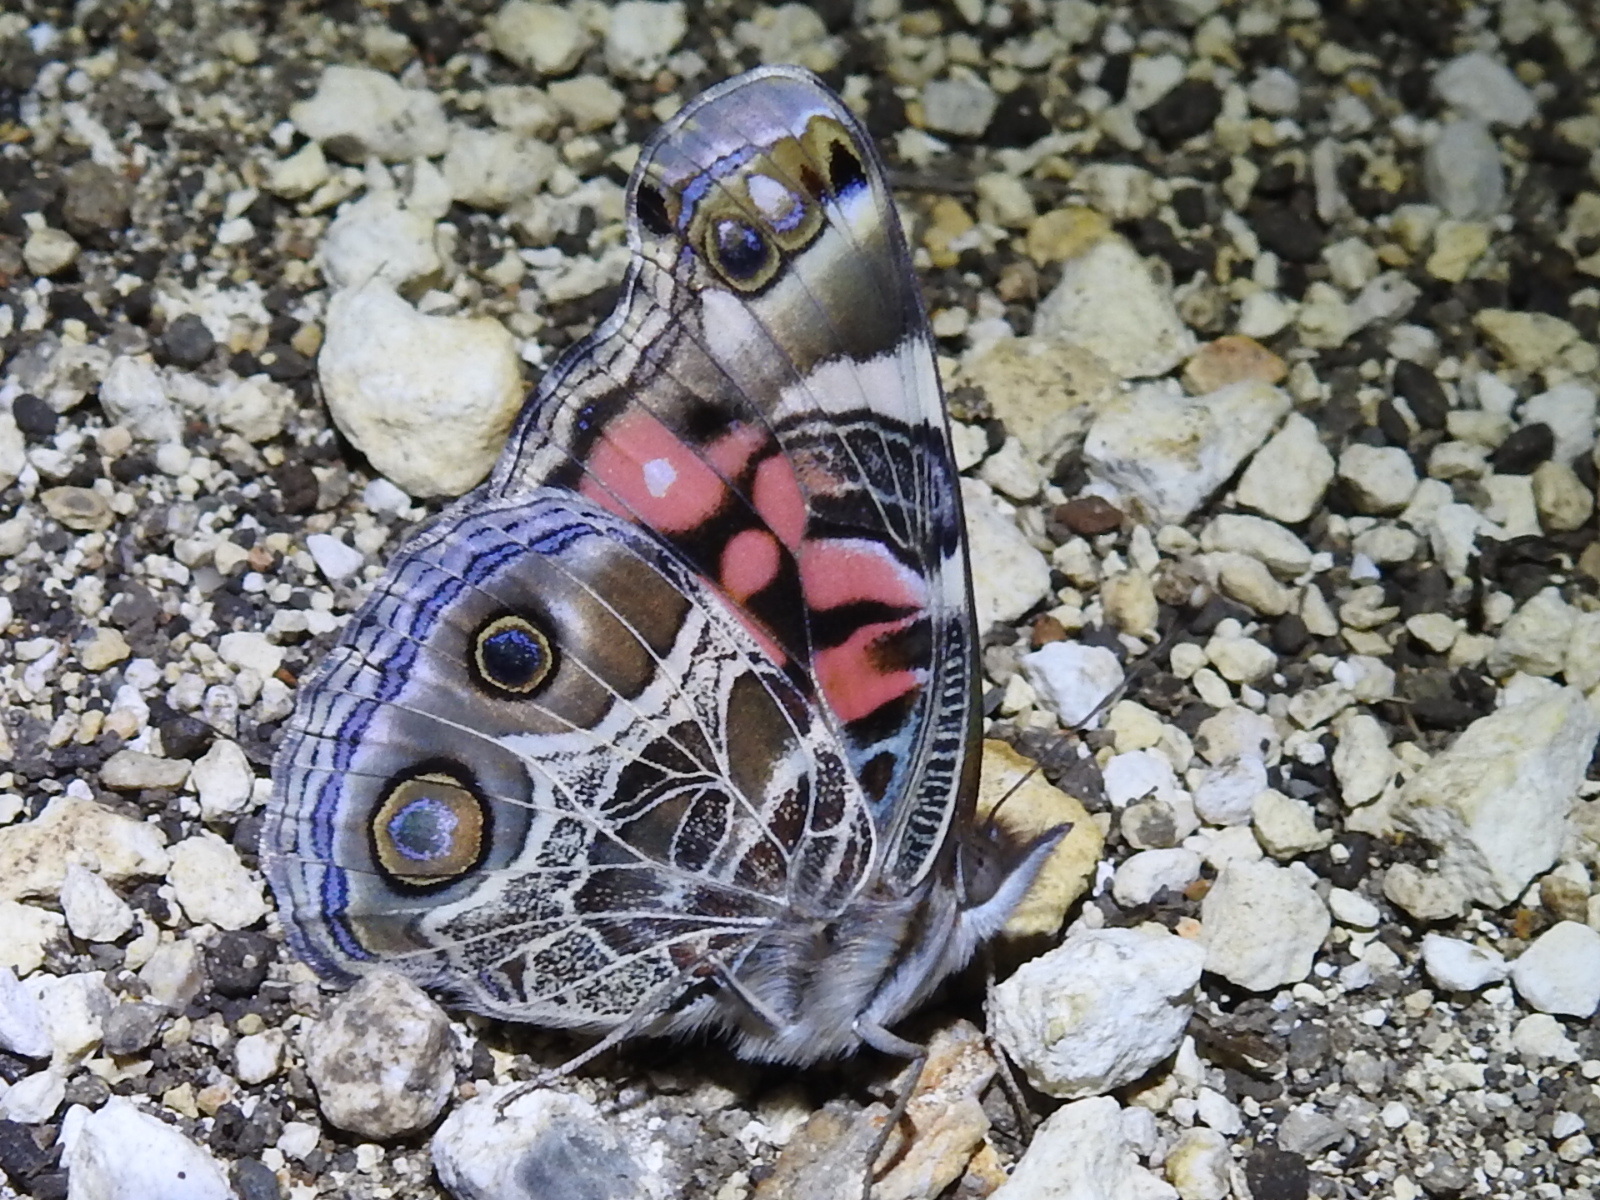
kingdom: Animalia
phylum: Arthropoda
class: Insecta
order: Lepidoptera
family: Nymphalidae
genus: Vanessa
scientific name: Vanessa virginiensis
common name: American lady
